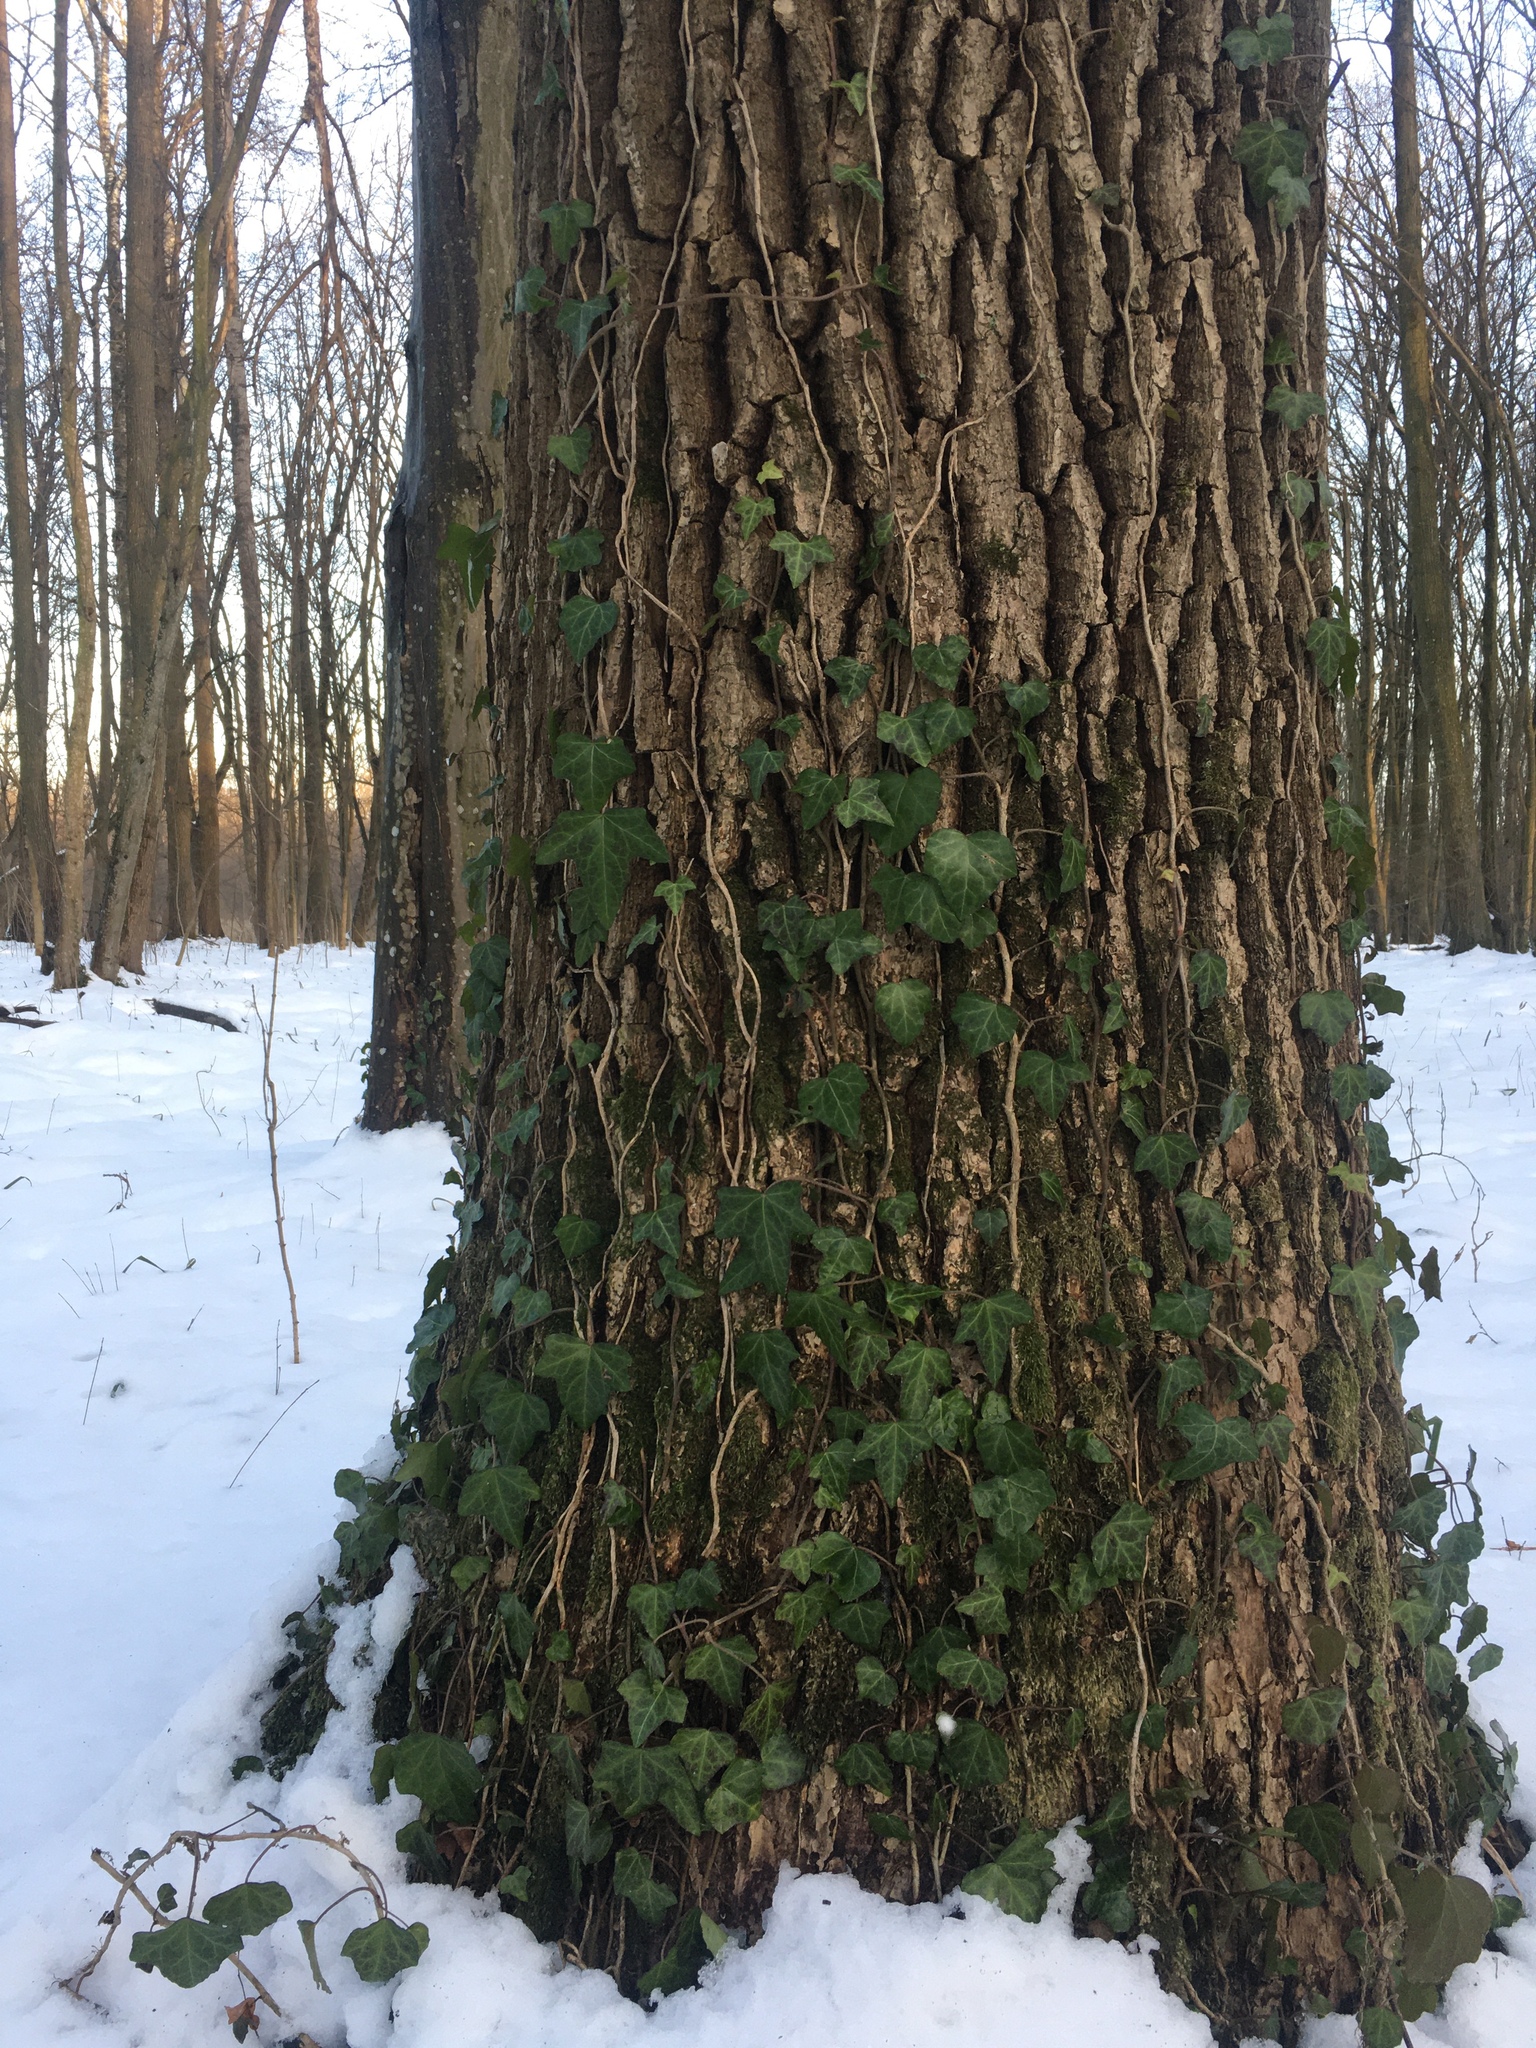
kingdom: Plantae
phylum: Tracheophyta
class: Magnoliopsida
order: Apiales
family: Araliaceae
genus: Hedera
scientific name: Hedera helix
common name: Ivy
